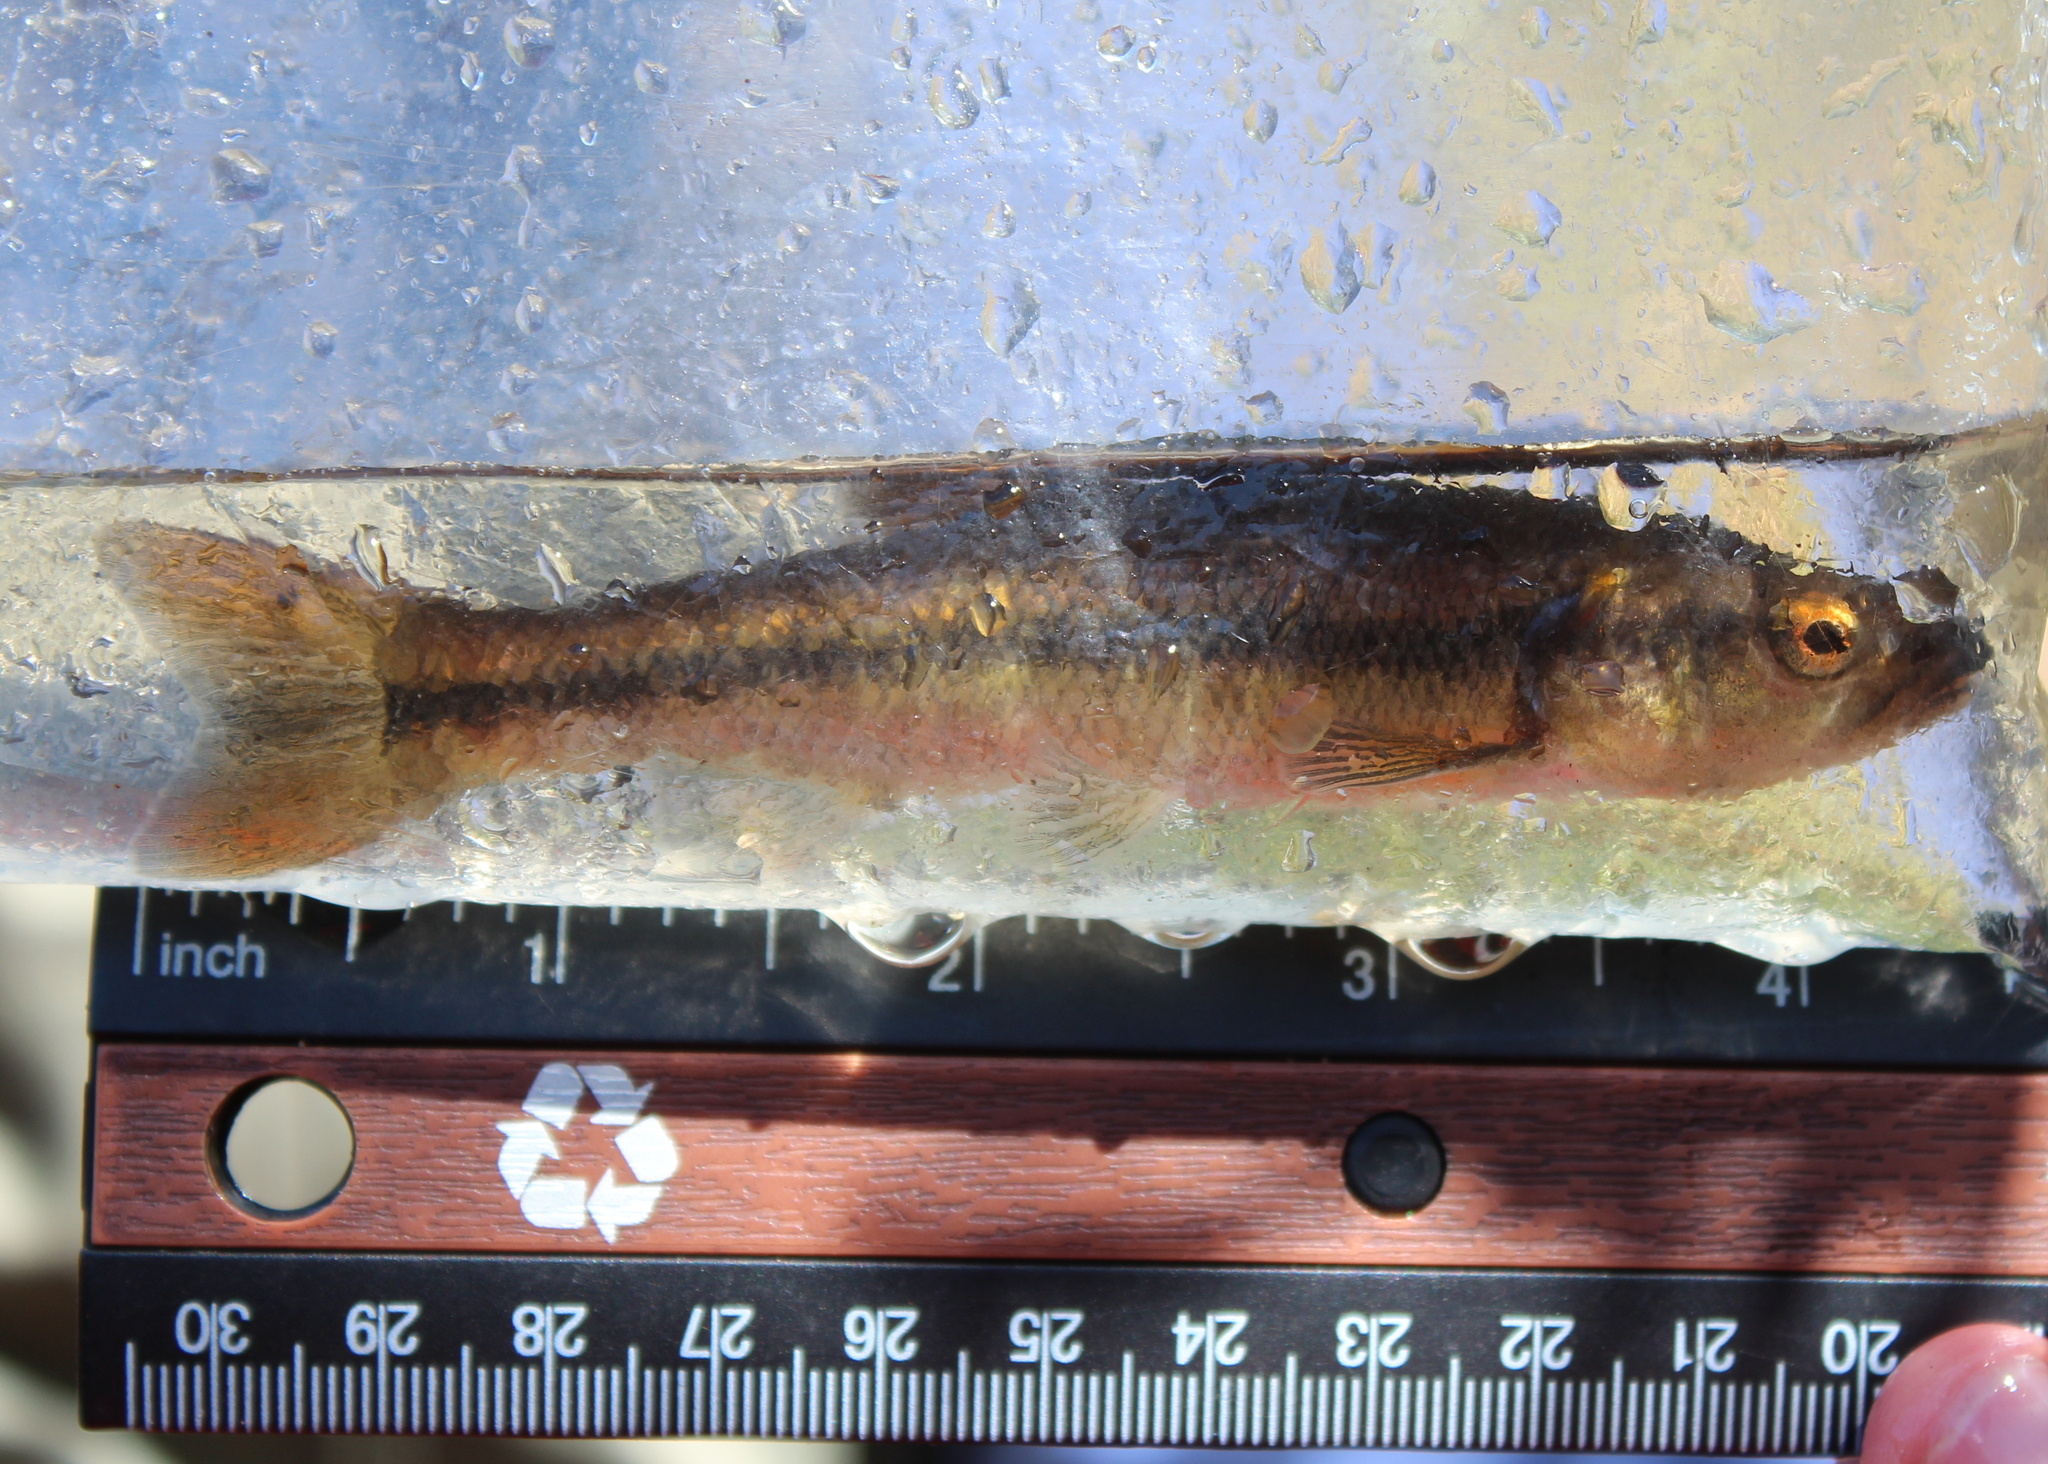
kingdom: Animalia
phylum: Chordata
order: Cypriniformes
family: Cyprinidae
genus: Semotilus
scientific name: Semotilus atromaculatus
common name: Creek chub
